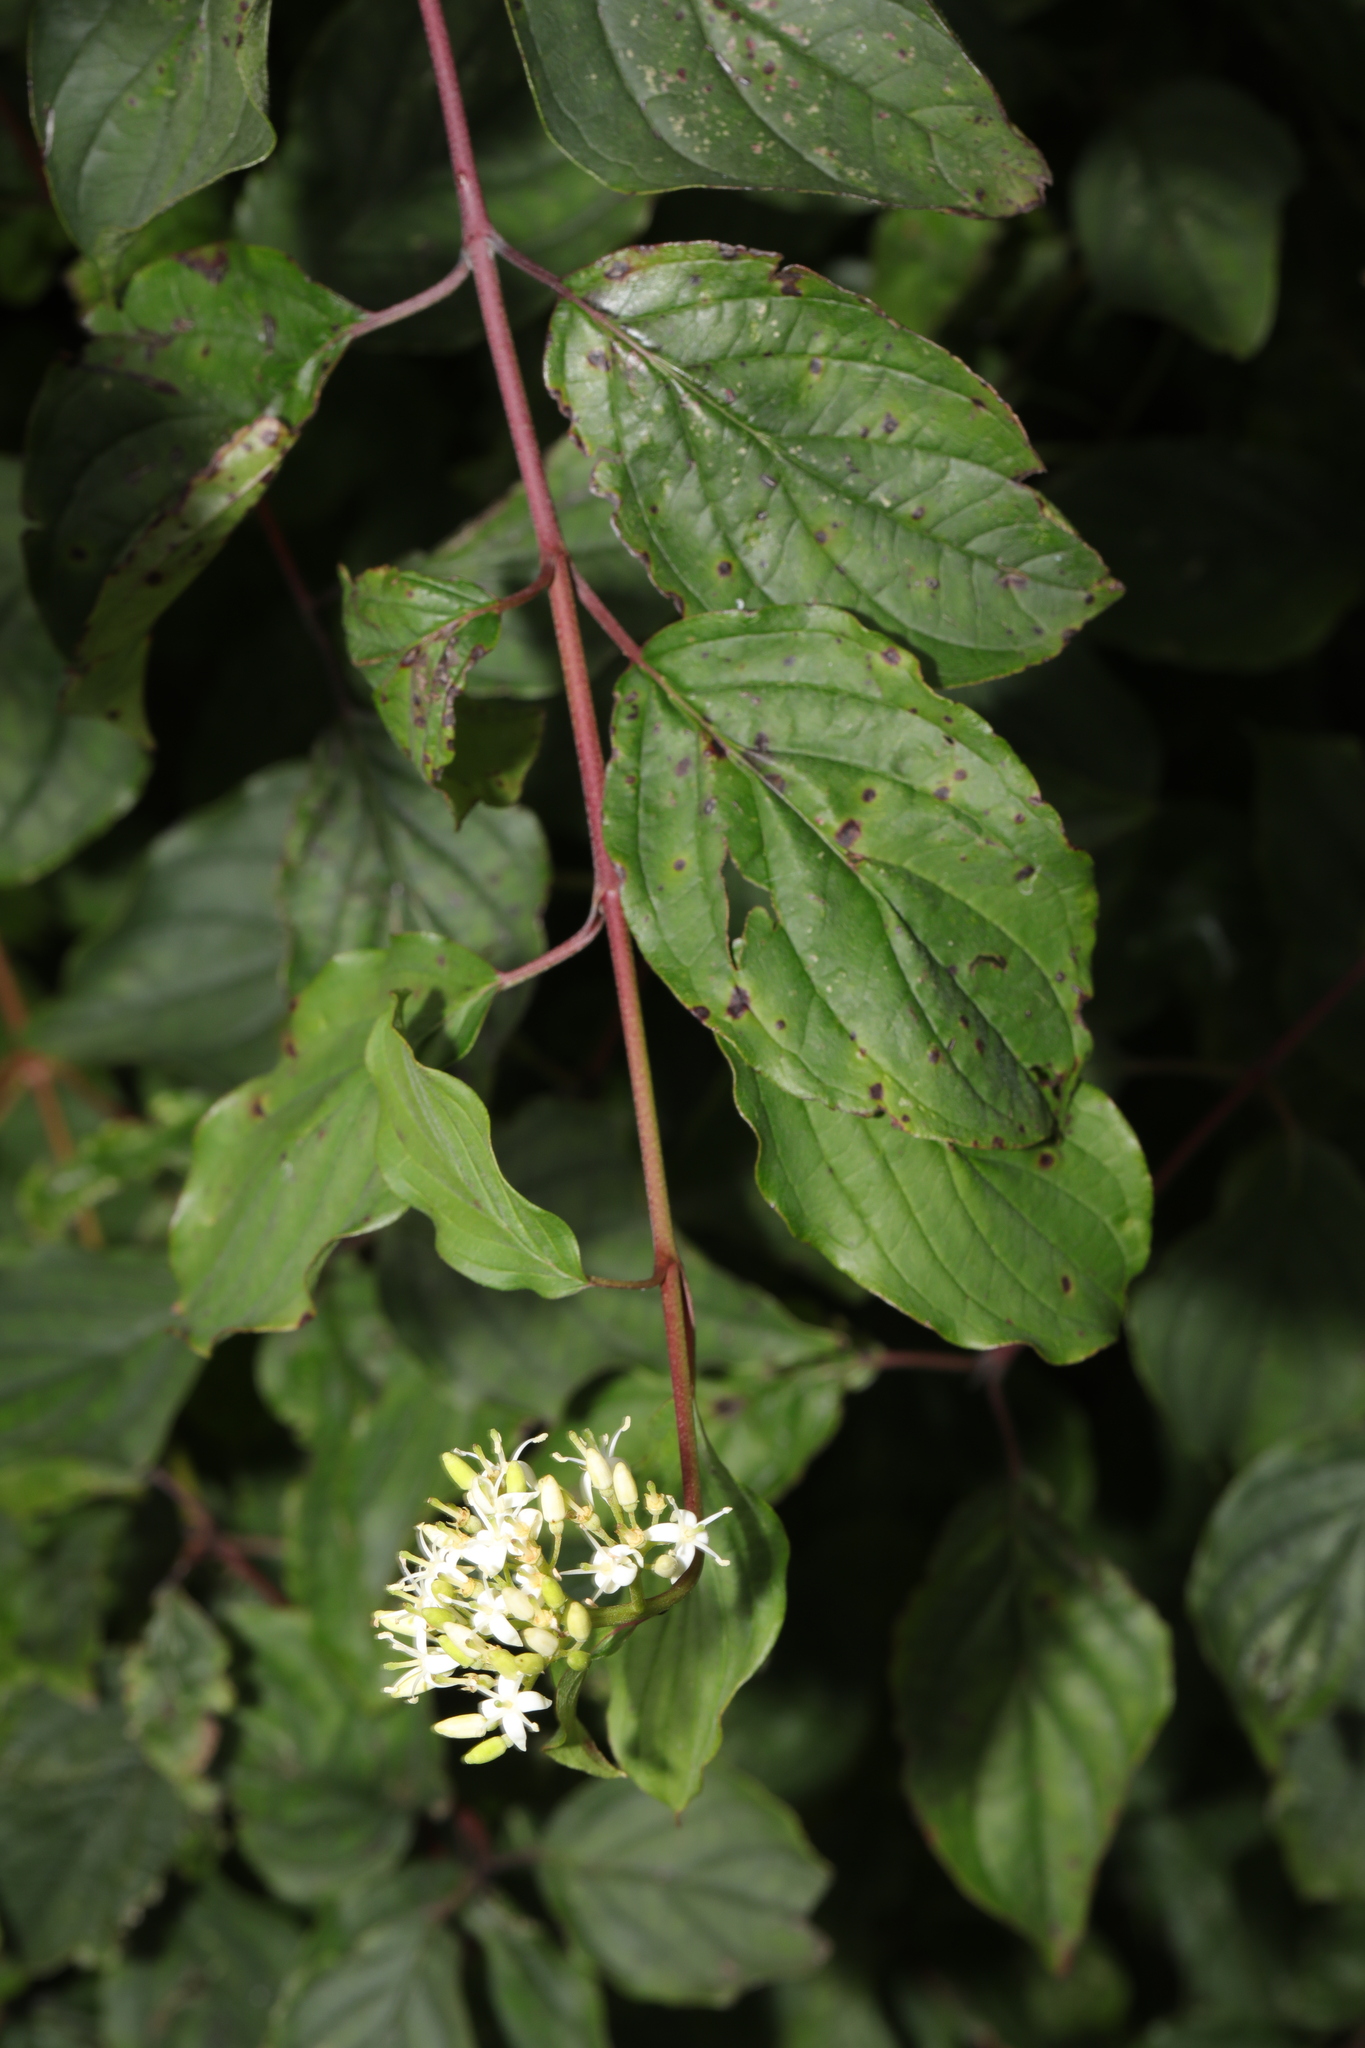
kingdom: Plantae
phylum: Tracheophyta
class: Magnoliopsida
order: Cornales
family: Cornaceae
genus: Cornus
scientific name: Cornus sanguinea
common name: Dogwood
